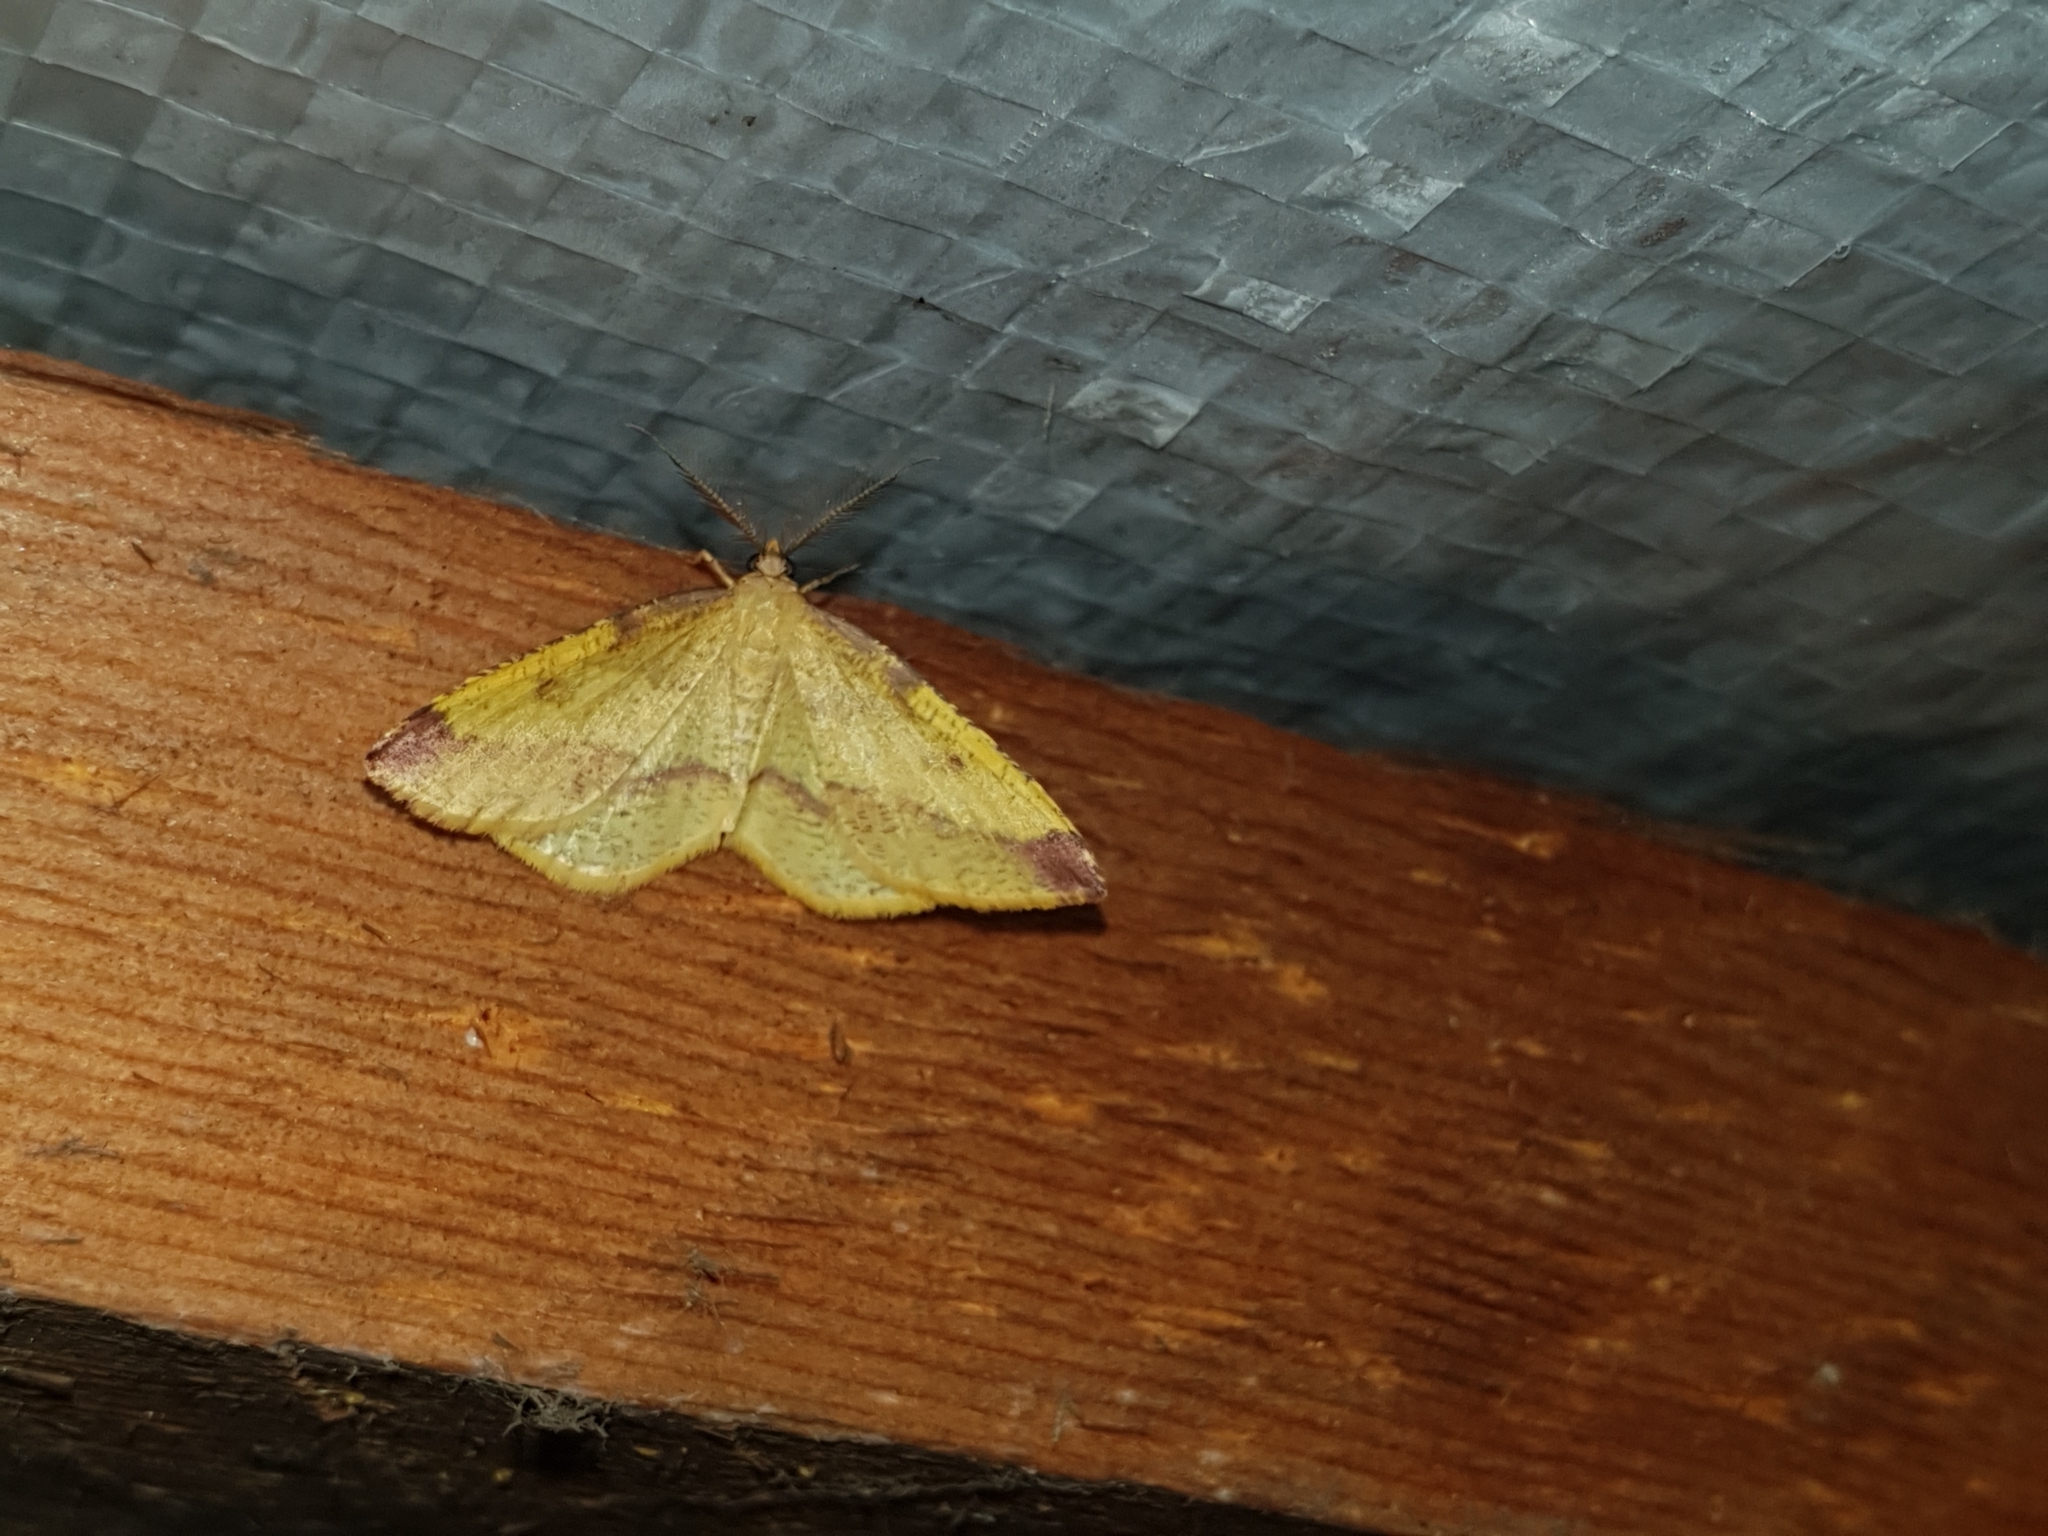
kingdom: Animalia
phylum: Arthropoda
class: Insecta
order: Lepidoptera
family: Geometridae
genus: Heterolocha
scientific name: Heterolocha laminaria
